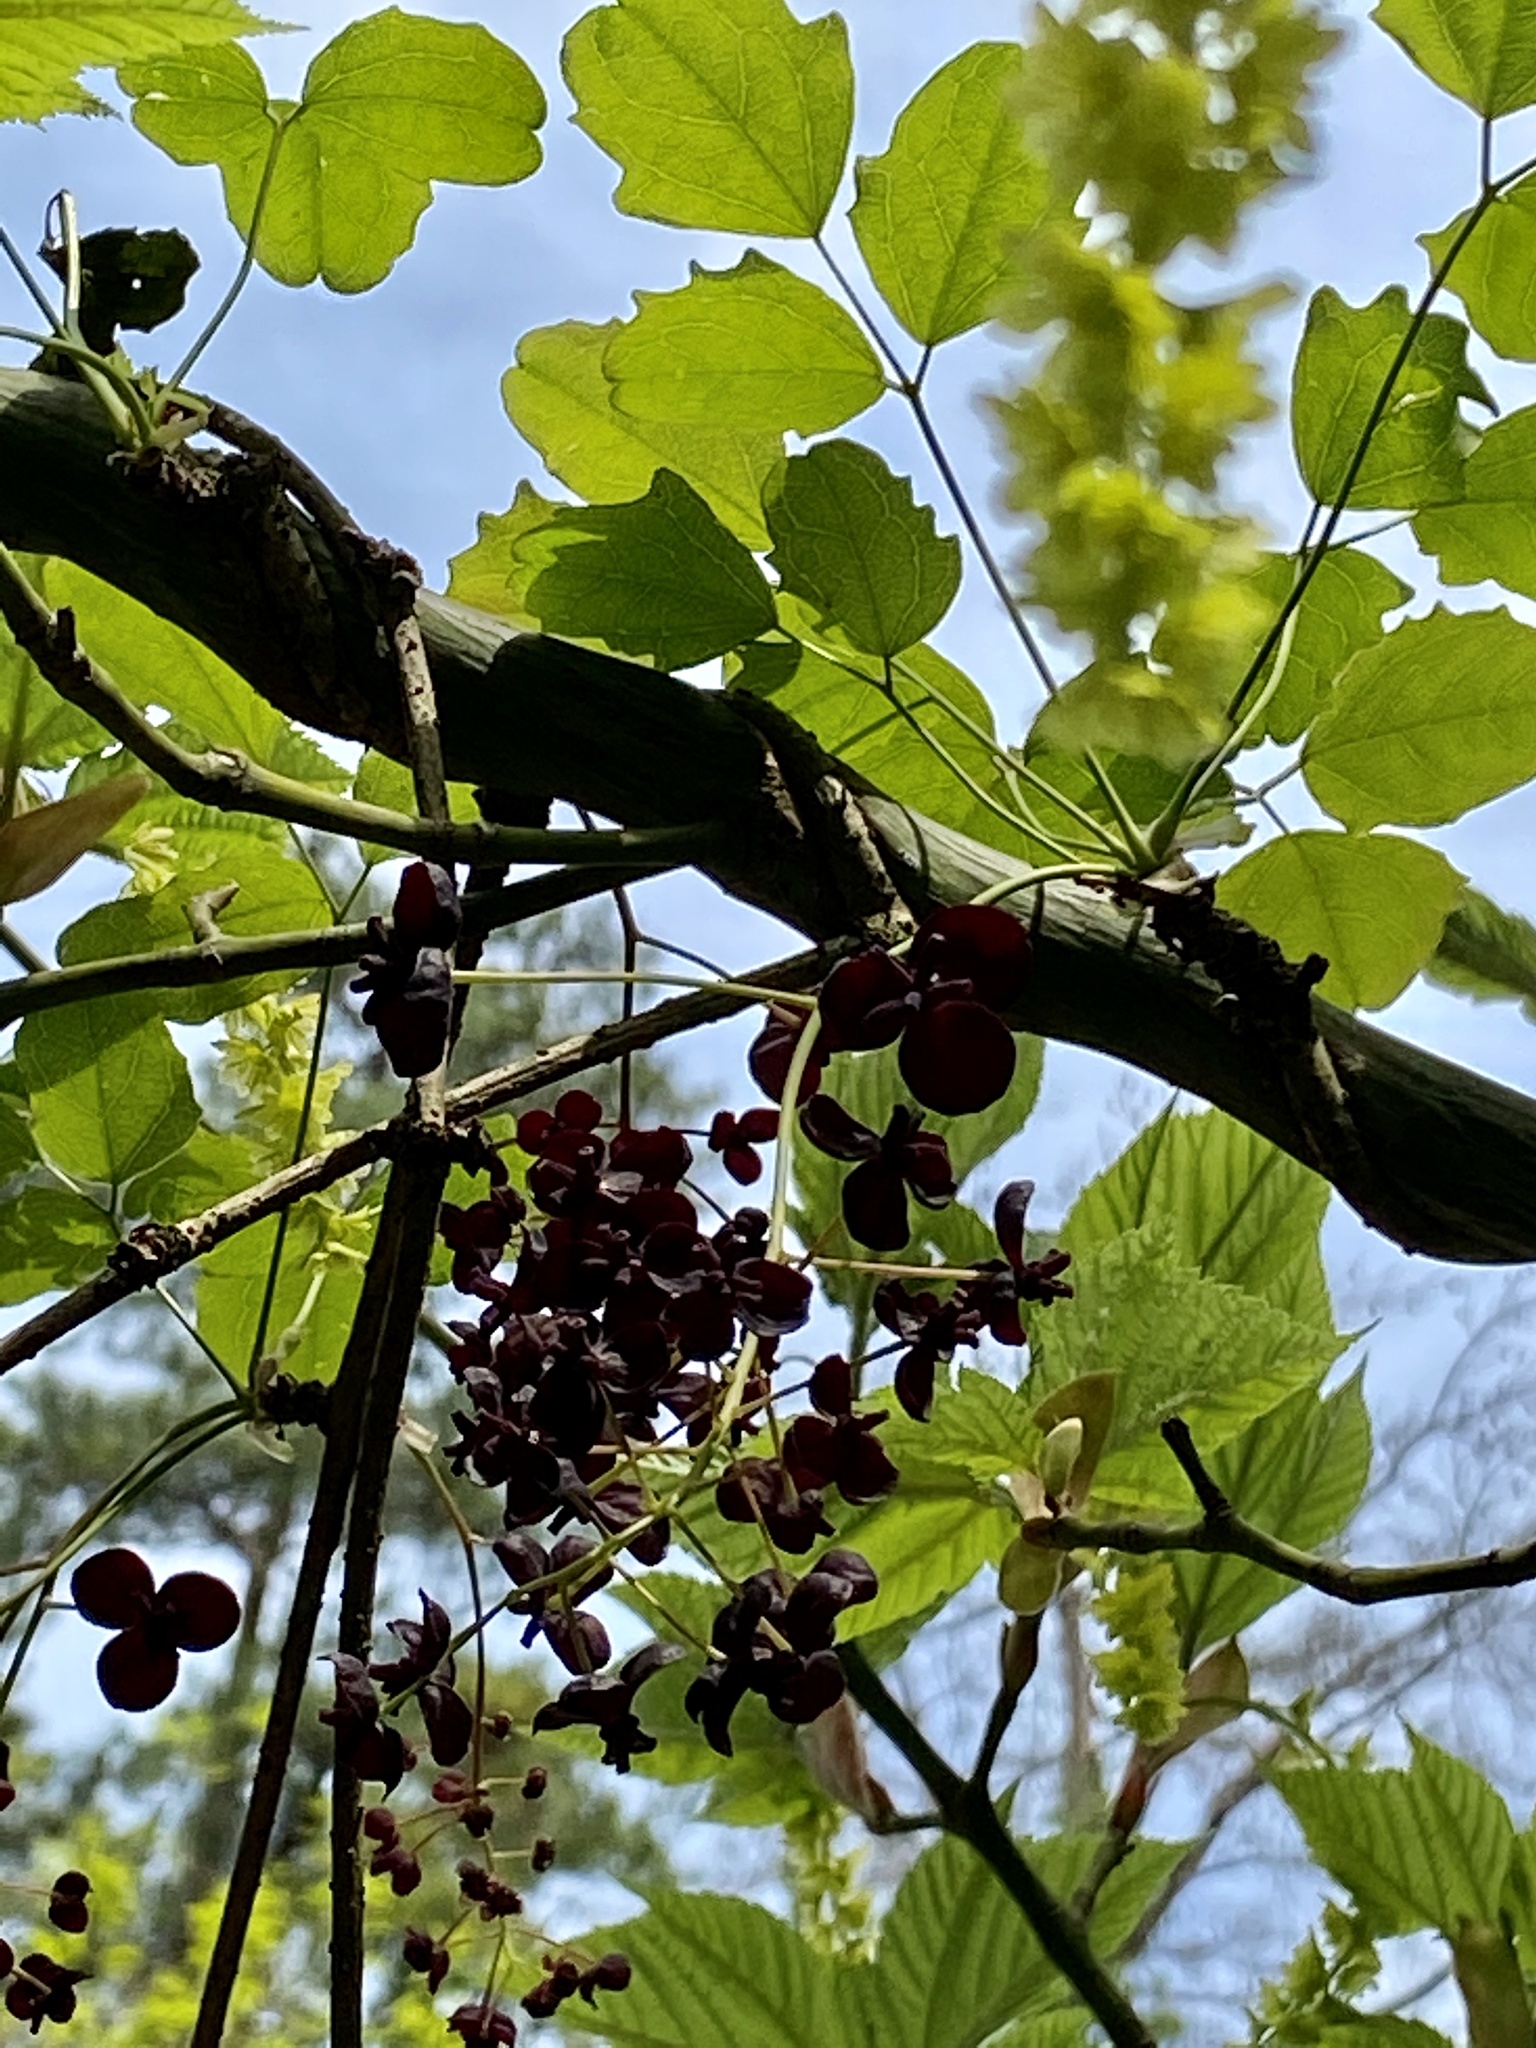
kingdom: Plantae
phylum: Tracheophyta
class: Magnoliopsida
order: Ranunculales
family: Lardizabalaceae
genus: Akebia
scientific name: Akebia trifoliata
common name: Chocolate-vine
